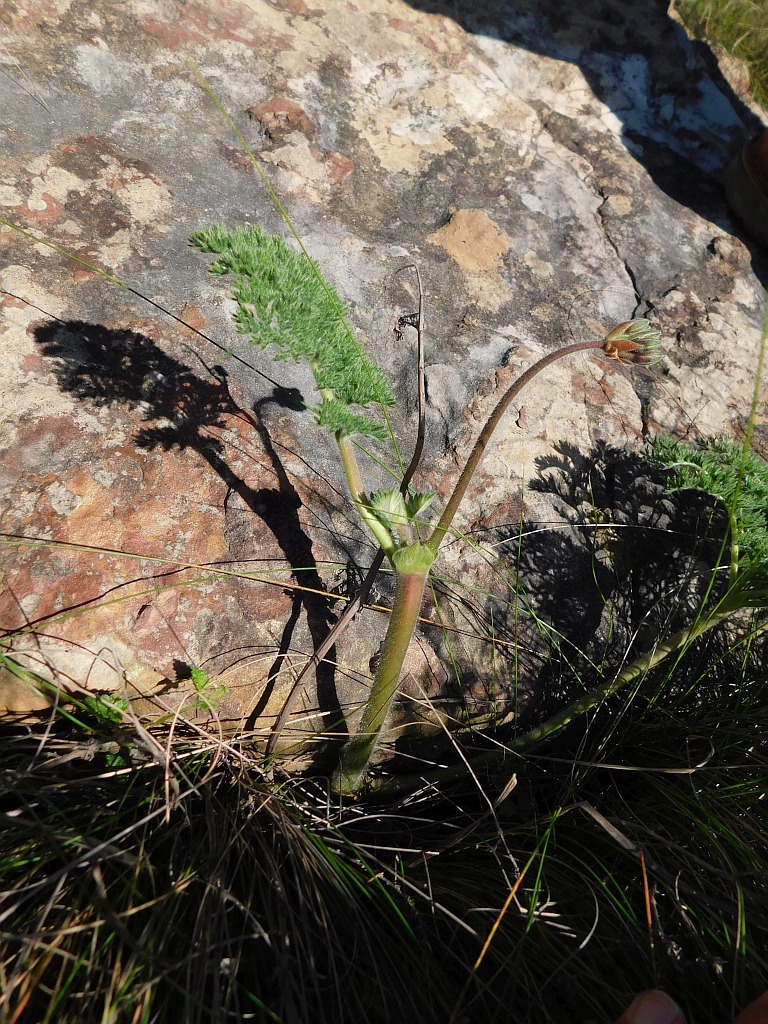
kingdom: Plantae
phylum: Tracheophyta
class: Magnoliopsida
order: Geraniales
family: Geraniaceae
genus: Pelargonium
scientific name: Pelargonium triste
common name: Night-scent pelargonium
